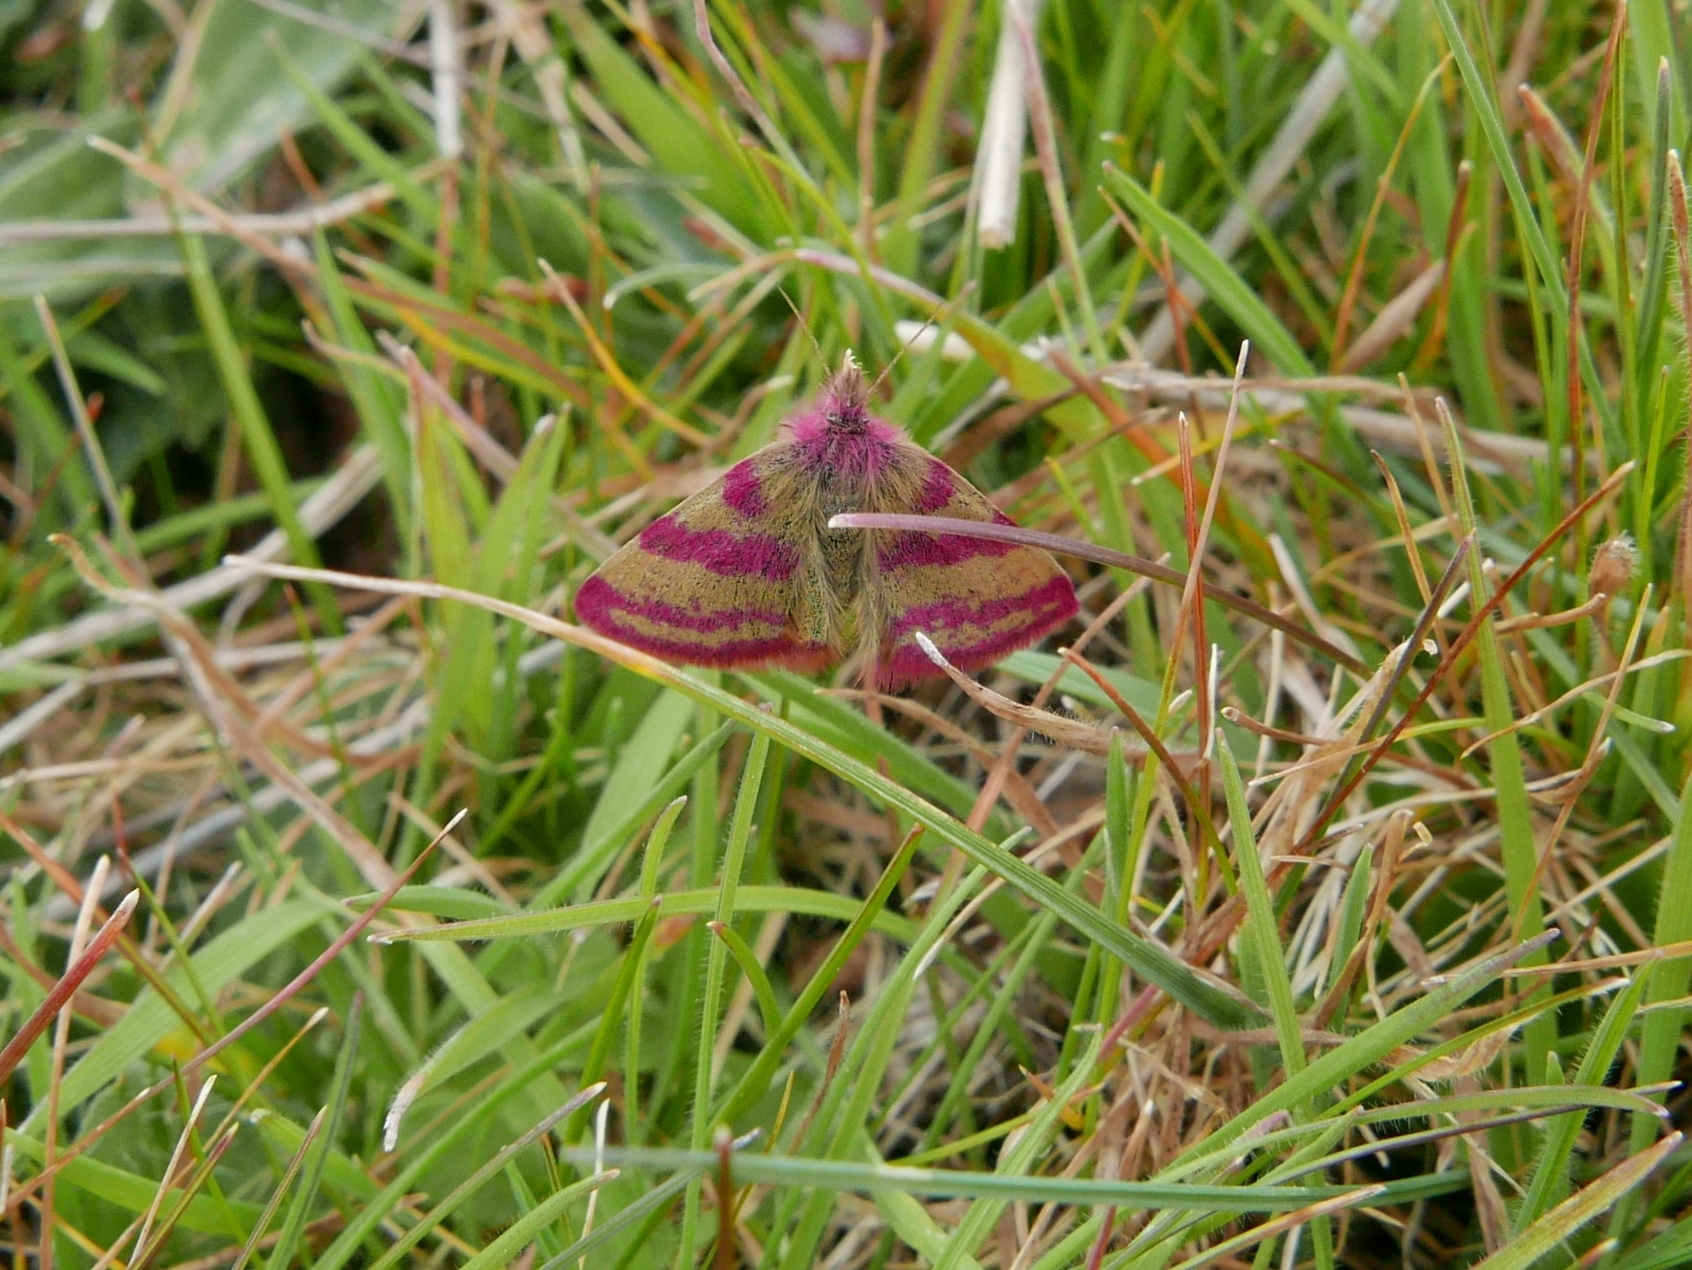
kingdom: Animalia
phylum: Arthropoda
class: Insecta
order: Lepidoptera
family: Geometridae
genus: Lythria
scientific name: Lythria cruentaria
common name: Purple-barred yellow
